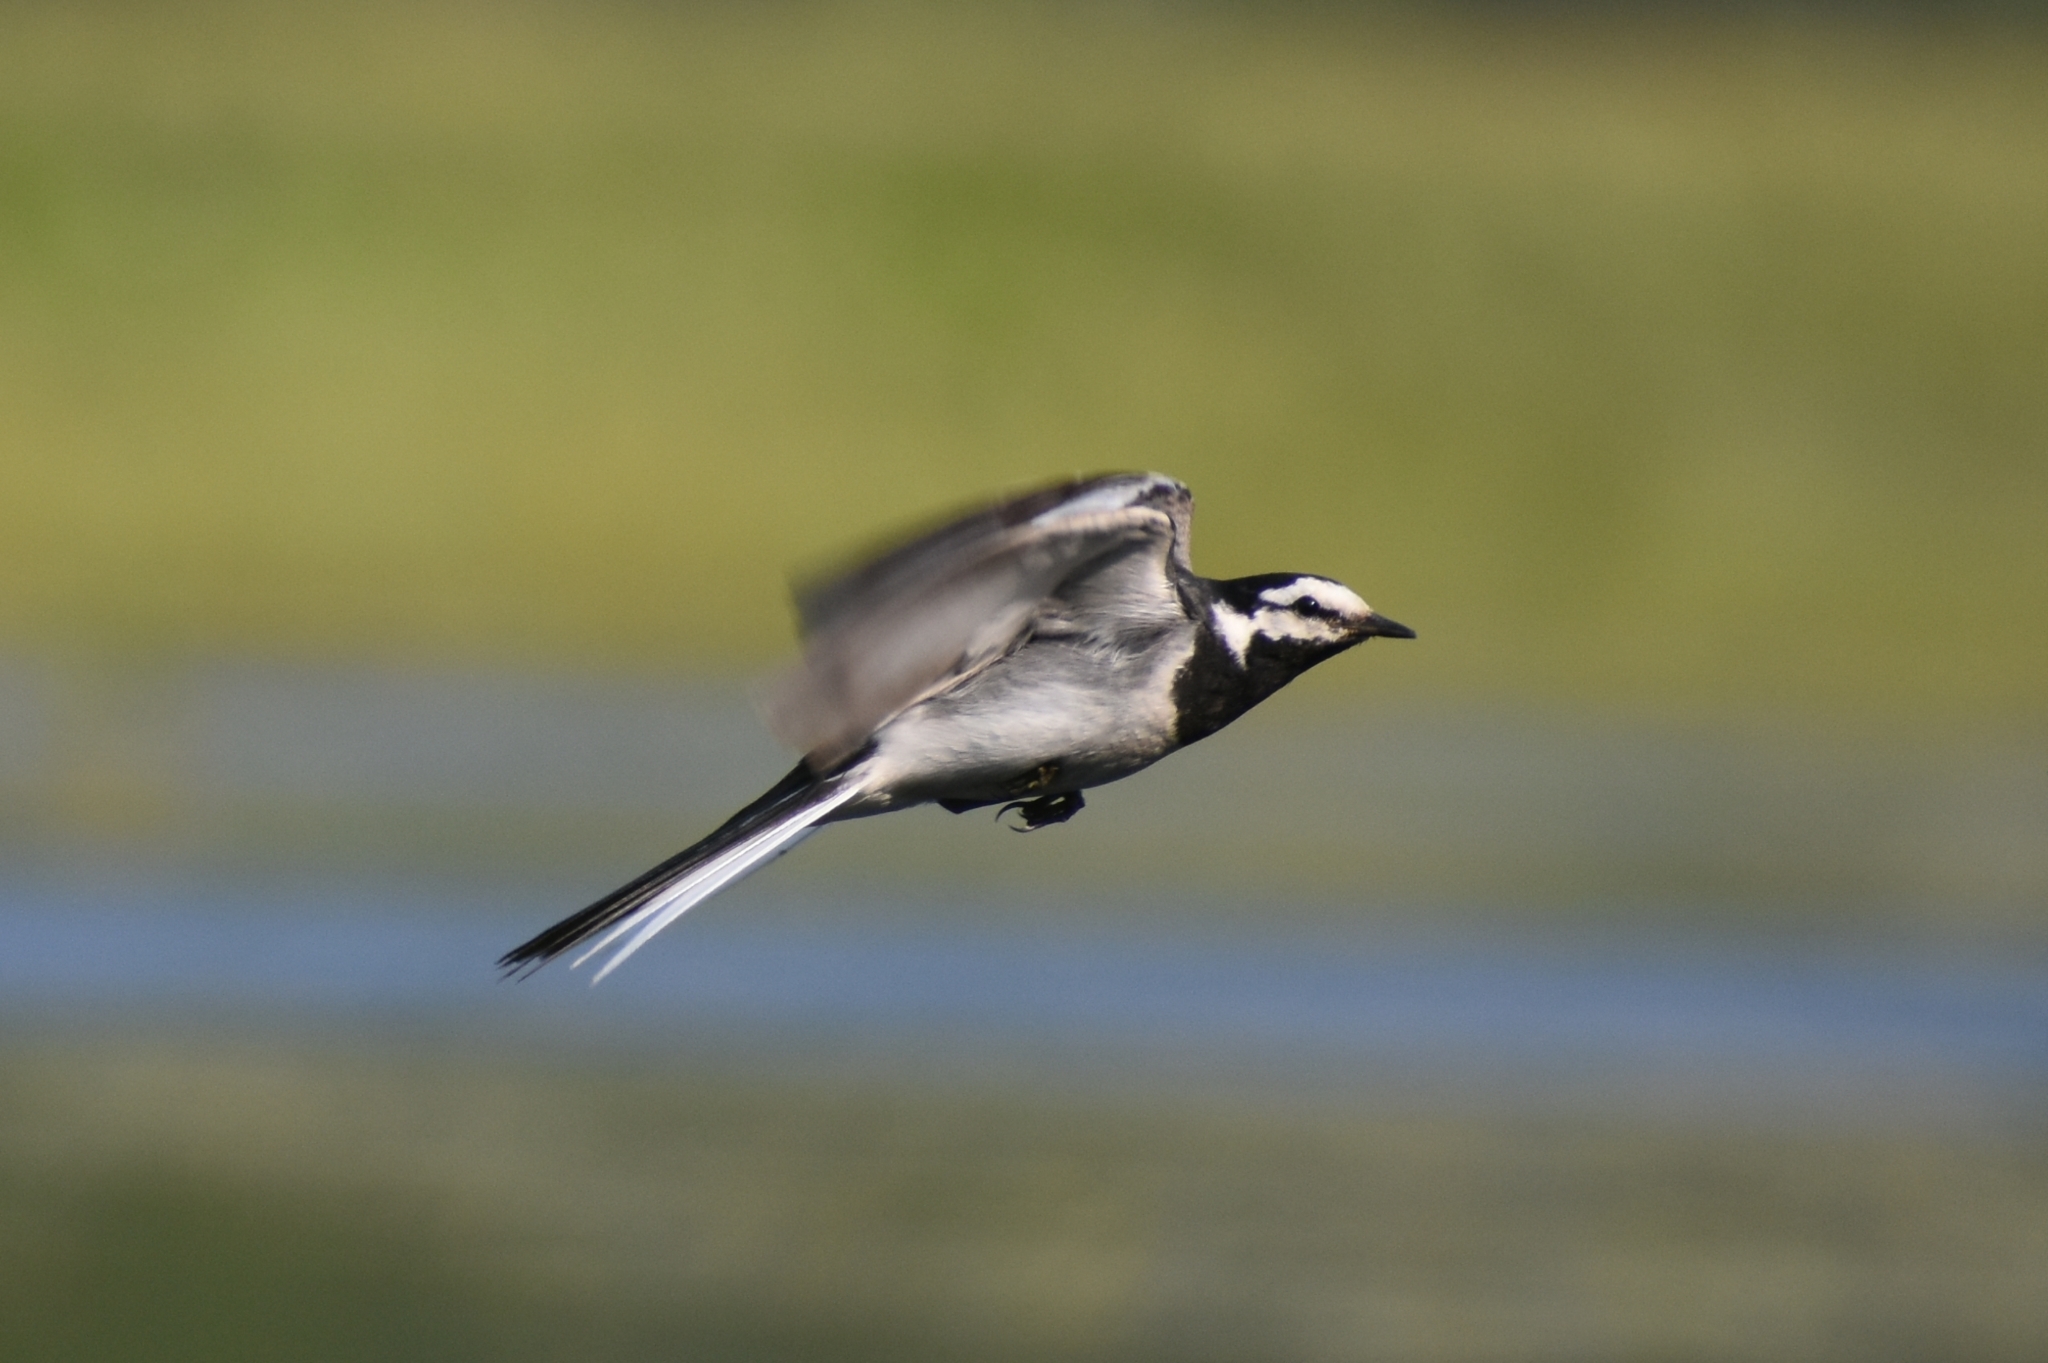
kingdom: Animalia
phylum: Chordata
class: Aves
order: Passeriformes
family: Motacillidae
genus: Motacilla
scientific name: Motacilla alba
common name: White wagtail
